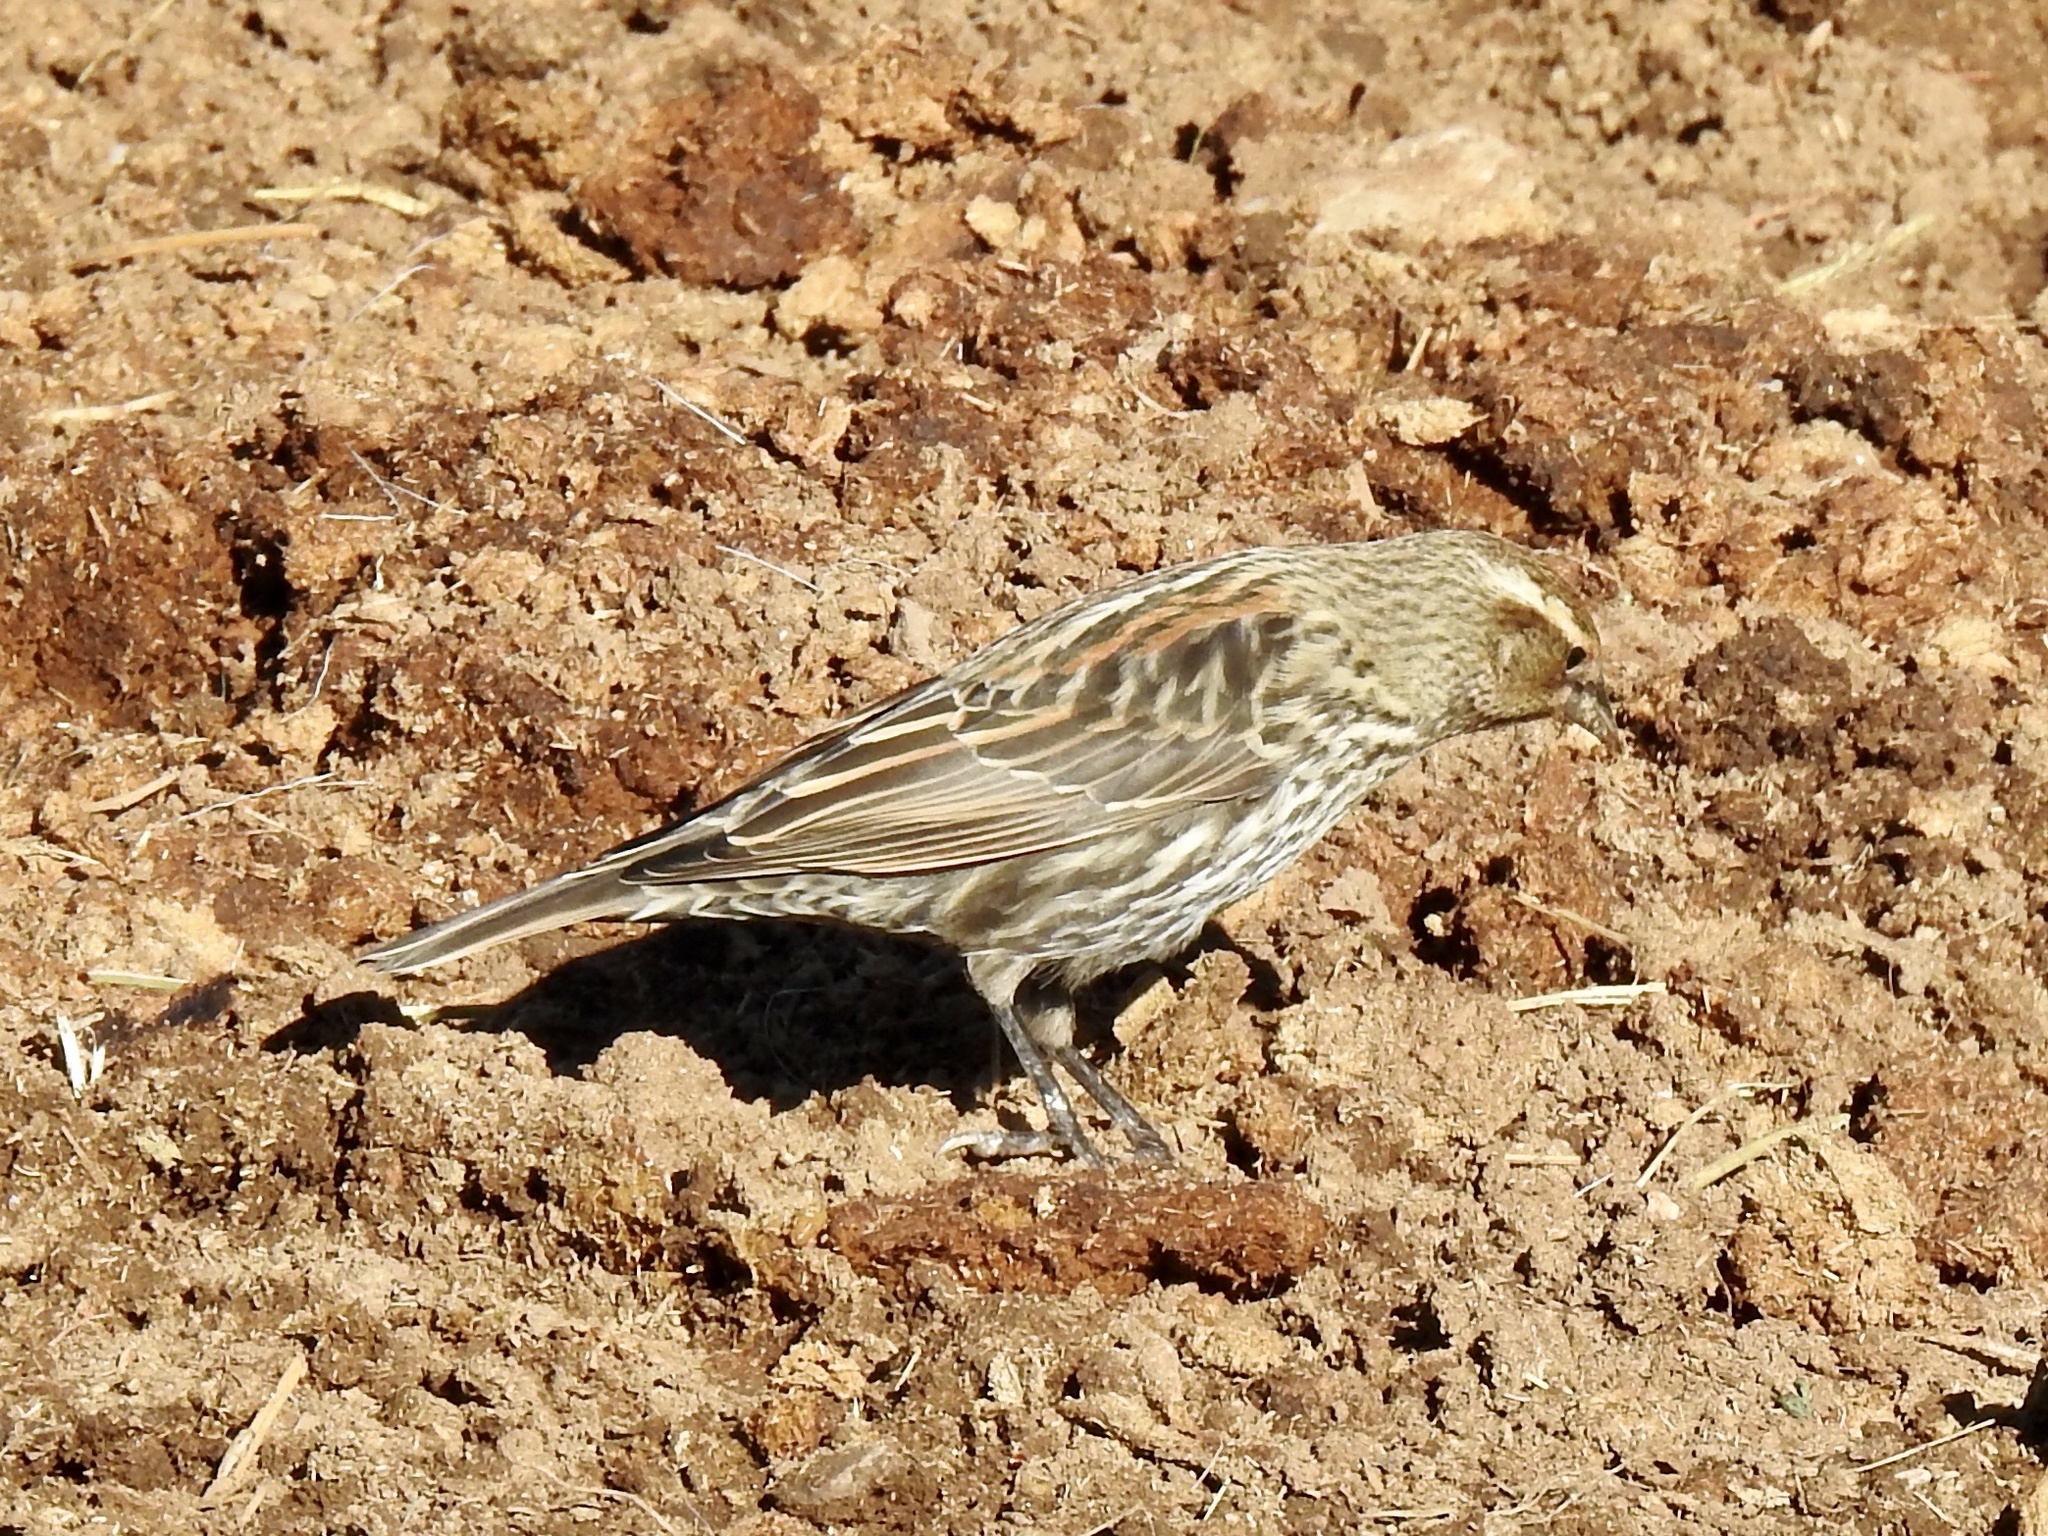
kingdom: Animalia
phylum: Chordata
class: Aves
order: Passeriformes
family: Icteridae
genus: Agelaius
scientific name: Agelaius phoeniceus
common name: Red-winged blackbird
